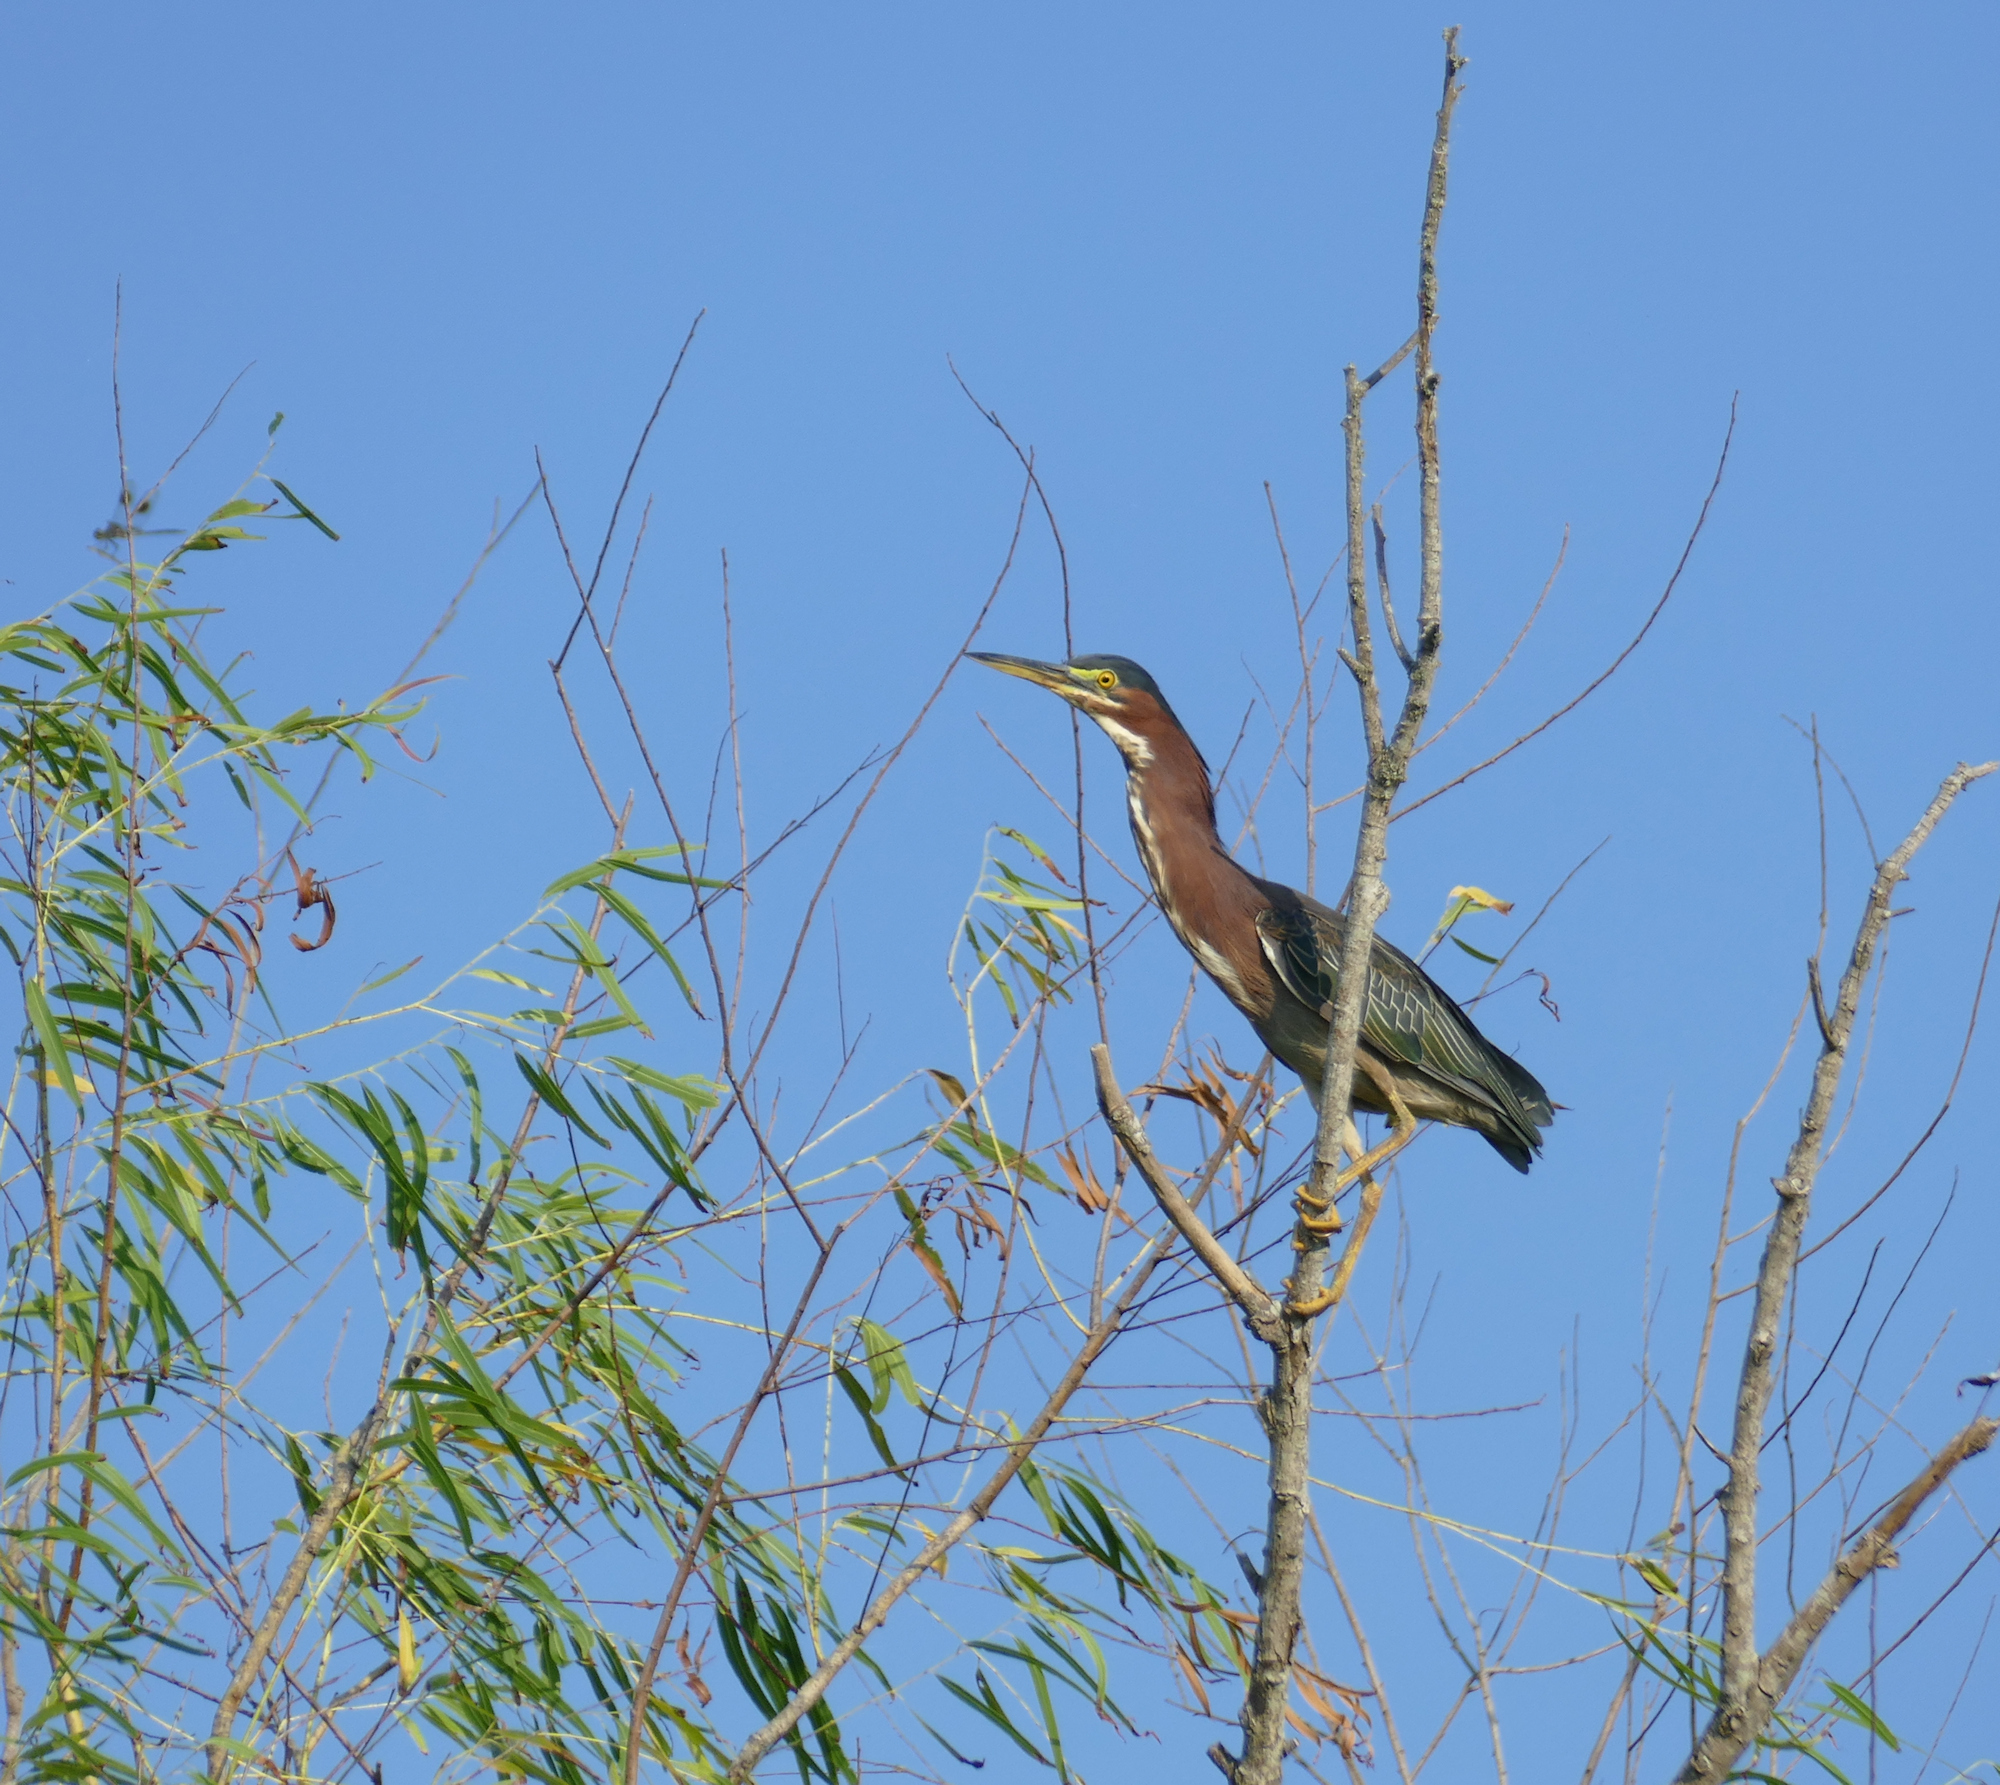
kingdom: Animalia
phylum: Chordata
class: Aves
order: Pelecaniformes
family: Ardeidae
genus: Butorides
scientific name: Butorides virescens
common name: Green heron
